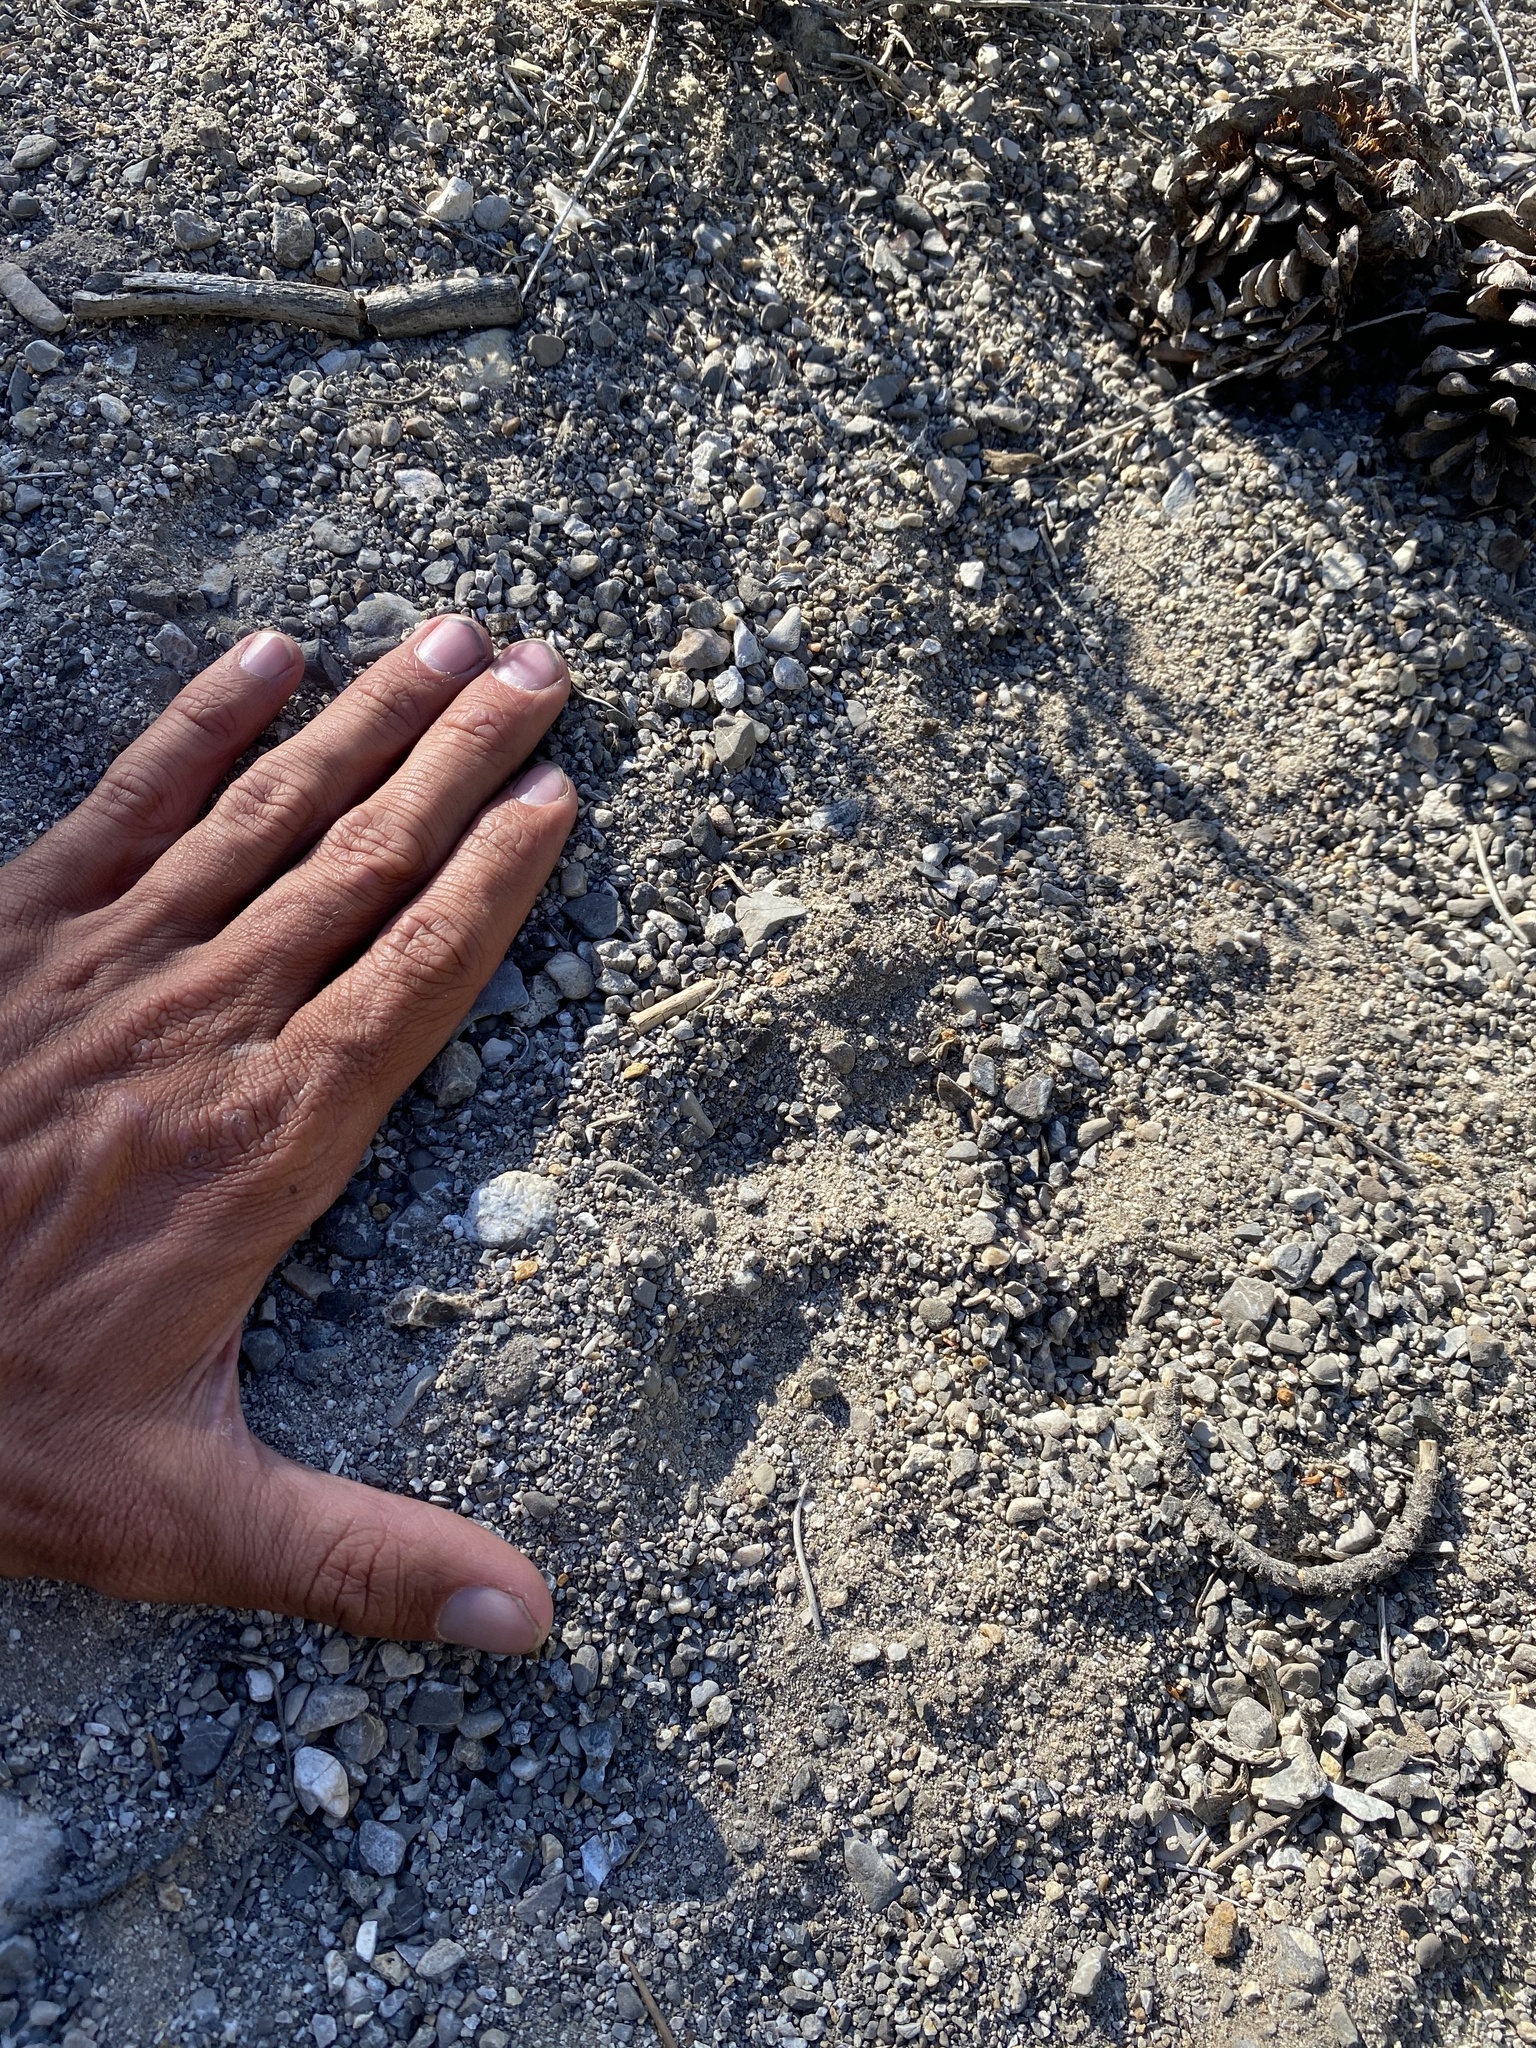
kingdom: Animalia
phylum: Chordata
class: Mammalia
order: Carnivora
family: Felidae
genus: Puma
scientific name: Puma concolor
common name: Puma
